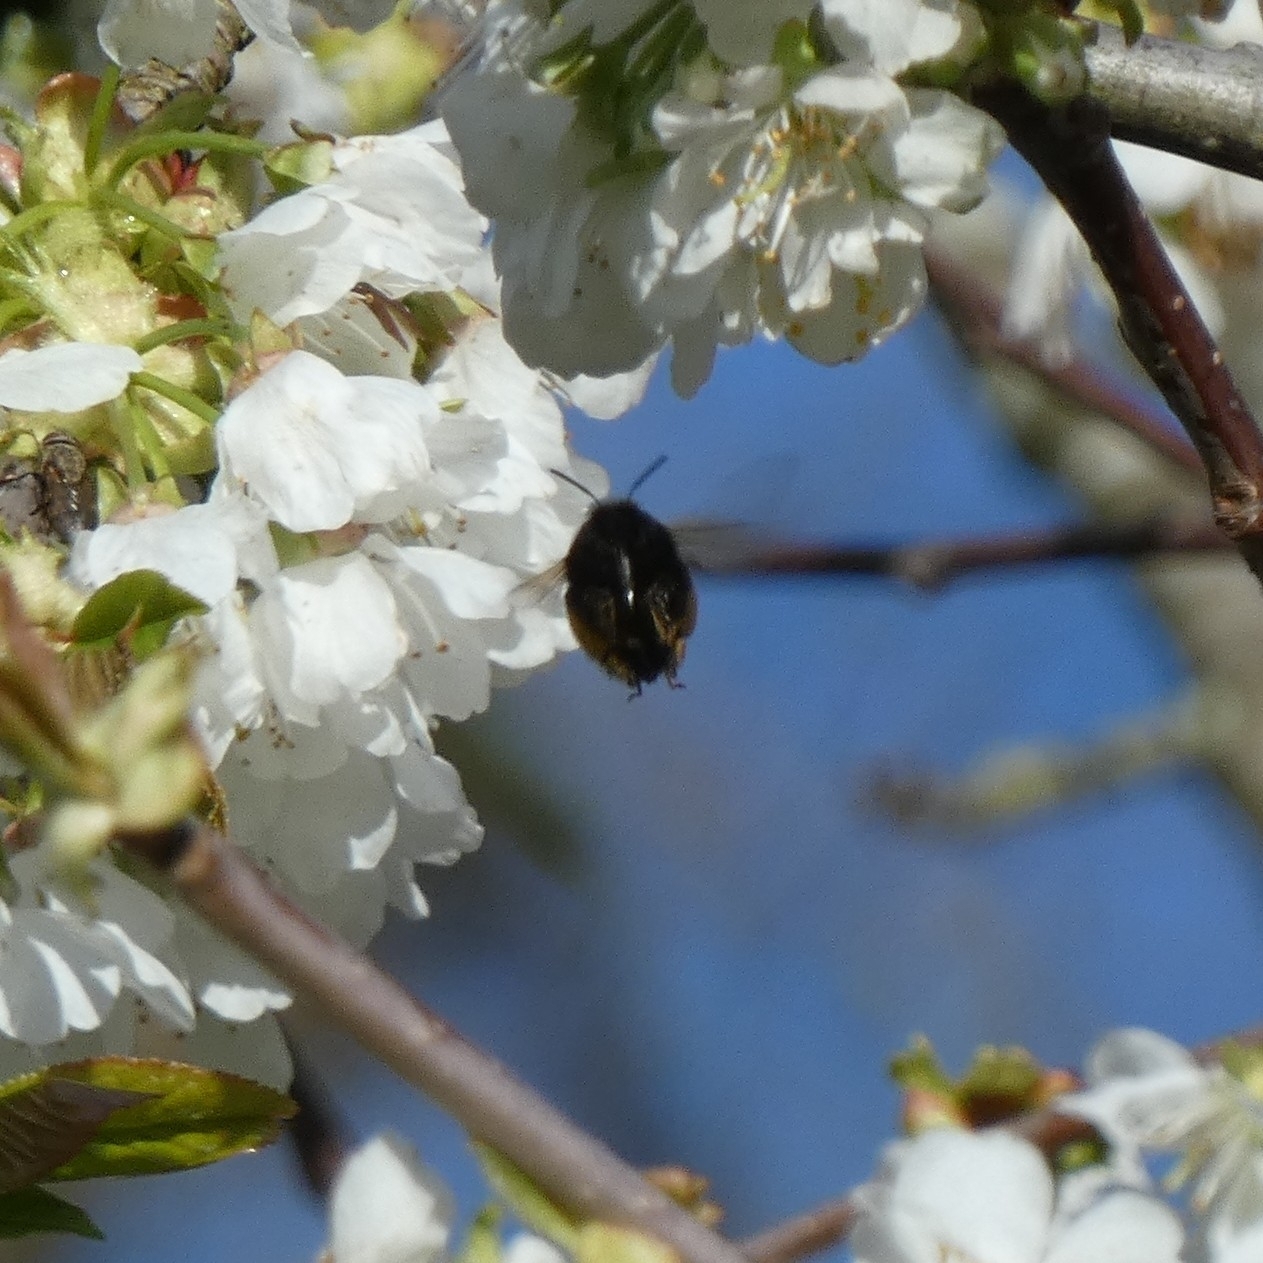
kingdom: Animalia
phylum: Arthropoda
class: Insecta
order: Hymenoptera
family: Apidae
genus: Anthophora
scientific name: Anthophora plumipes
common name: Hairy-footed flower bee
